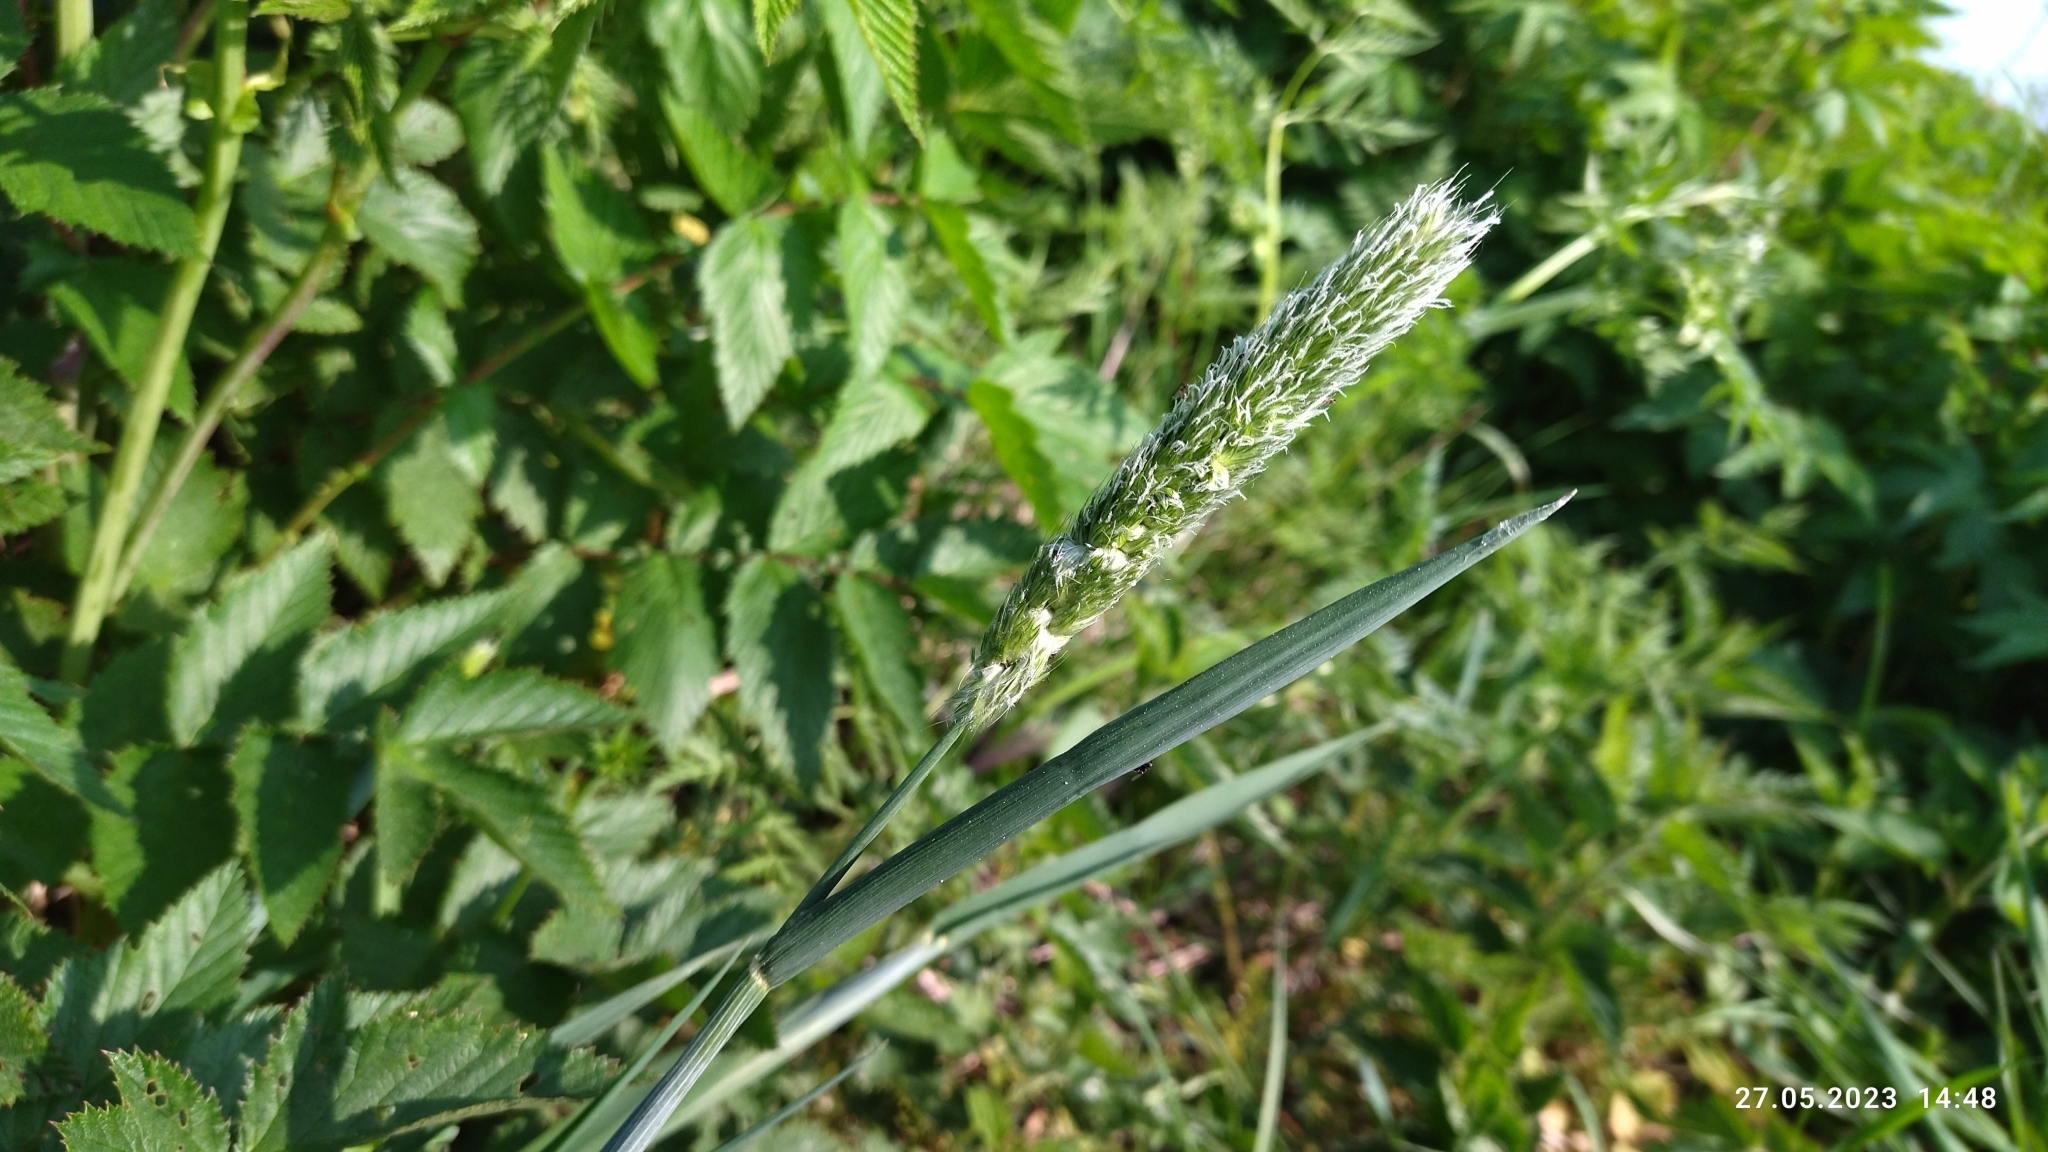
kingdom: Plantae
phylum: Tracheophyta
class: Liliopsida
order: Poales
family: Poaceae
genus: Alopecurus
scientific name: Alopecurus pratensis
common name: Meadow foxtail
